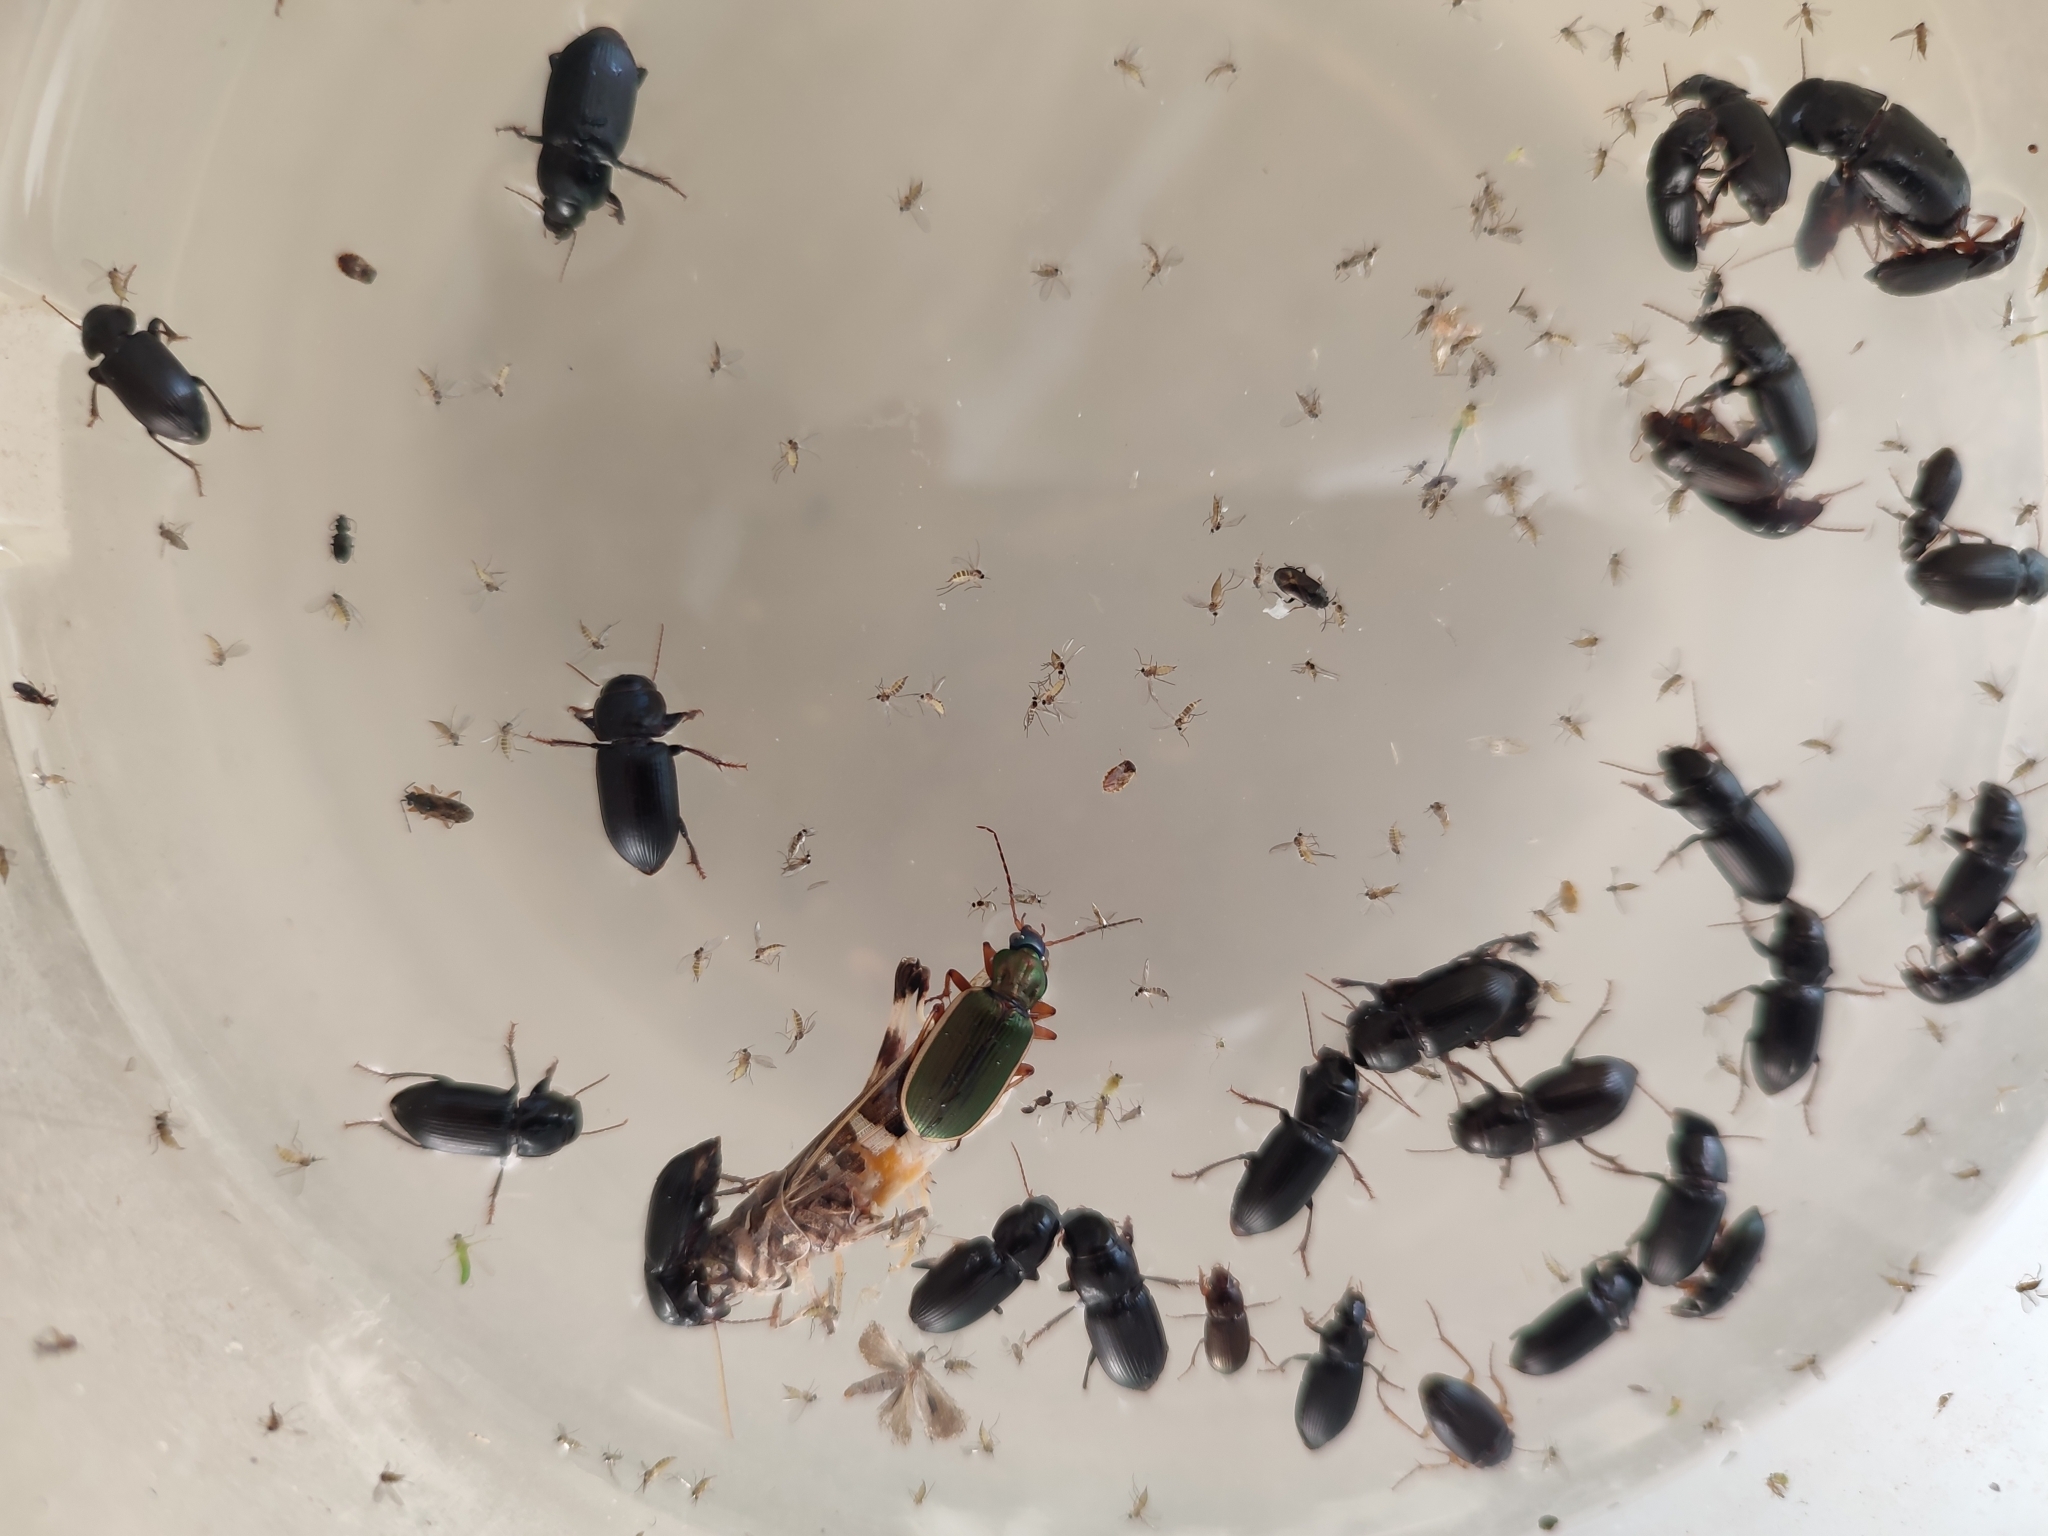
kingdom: Animalia
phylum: Arthropoda
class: Insecta
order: Coleoptera
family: Carabidae
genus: Chlaenius
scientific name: Chlaenius spoliatus
